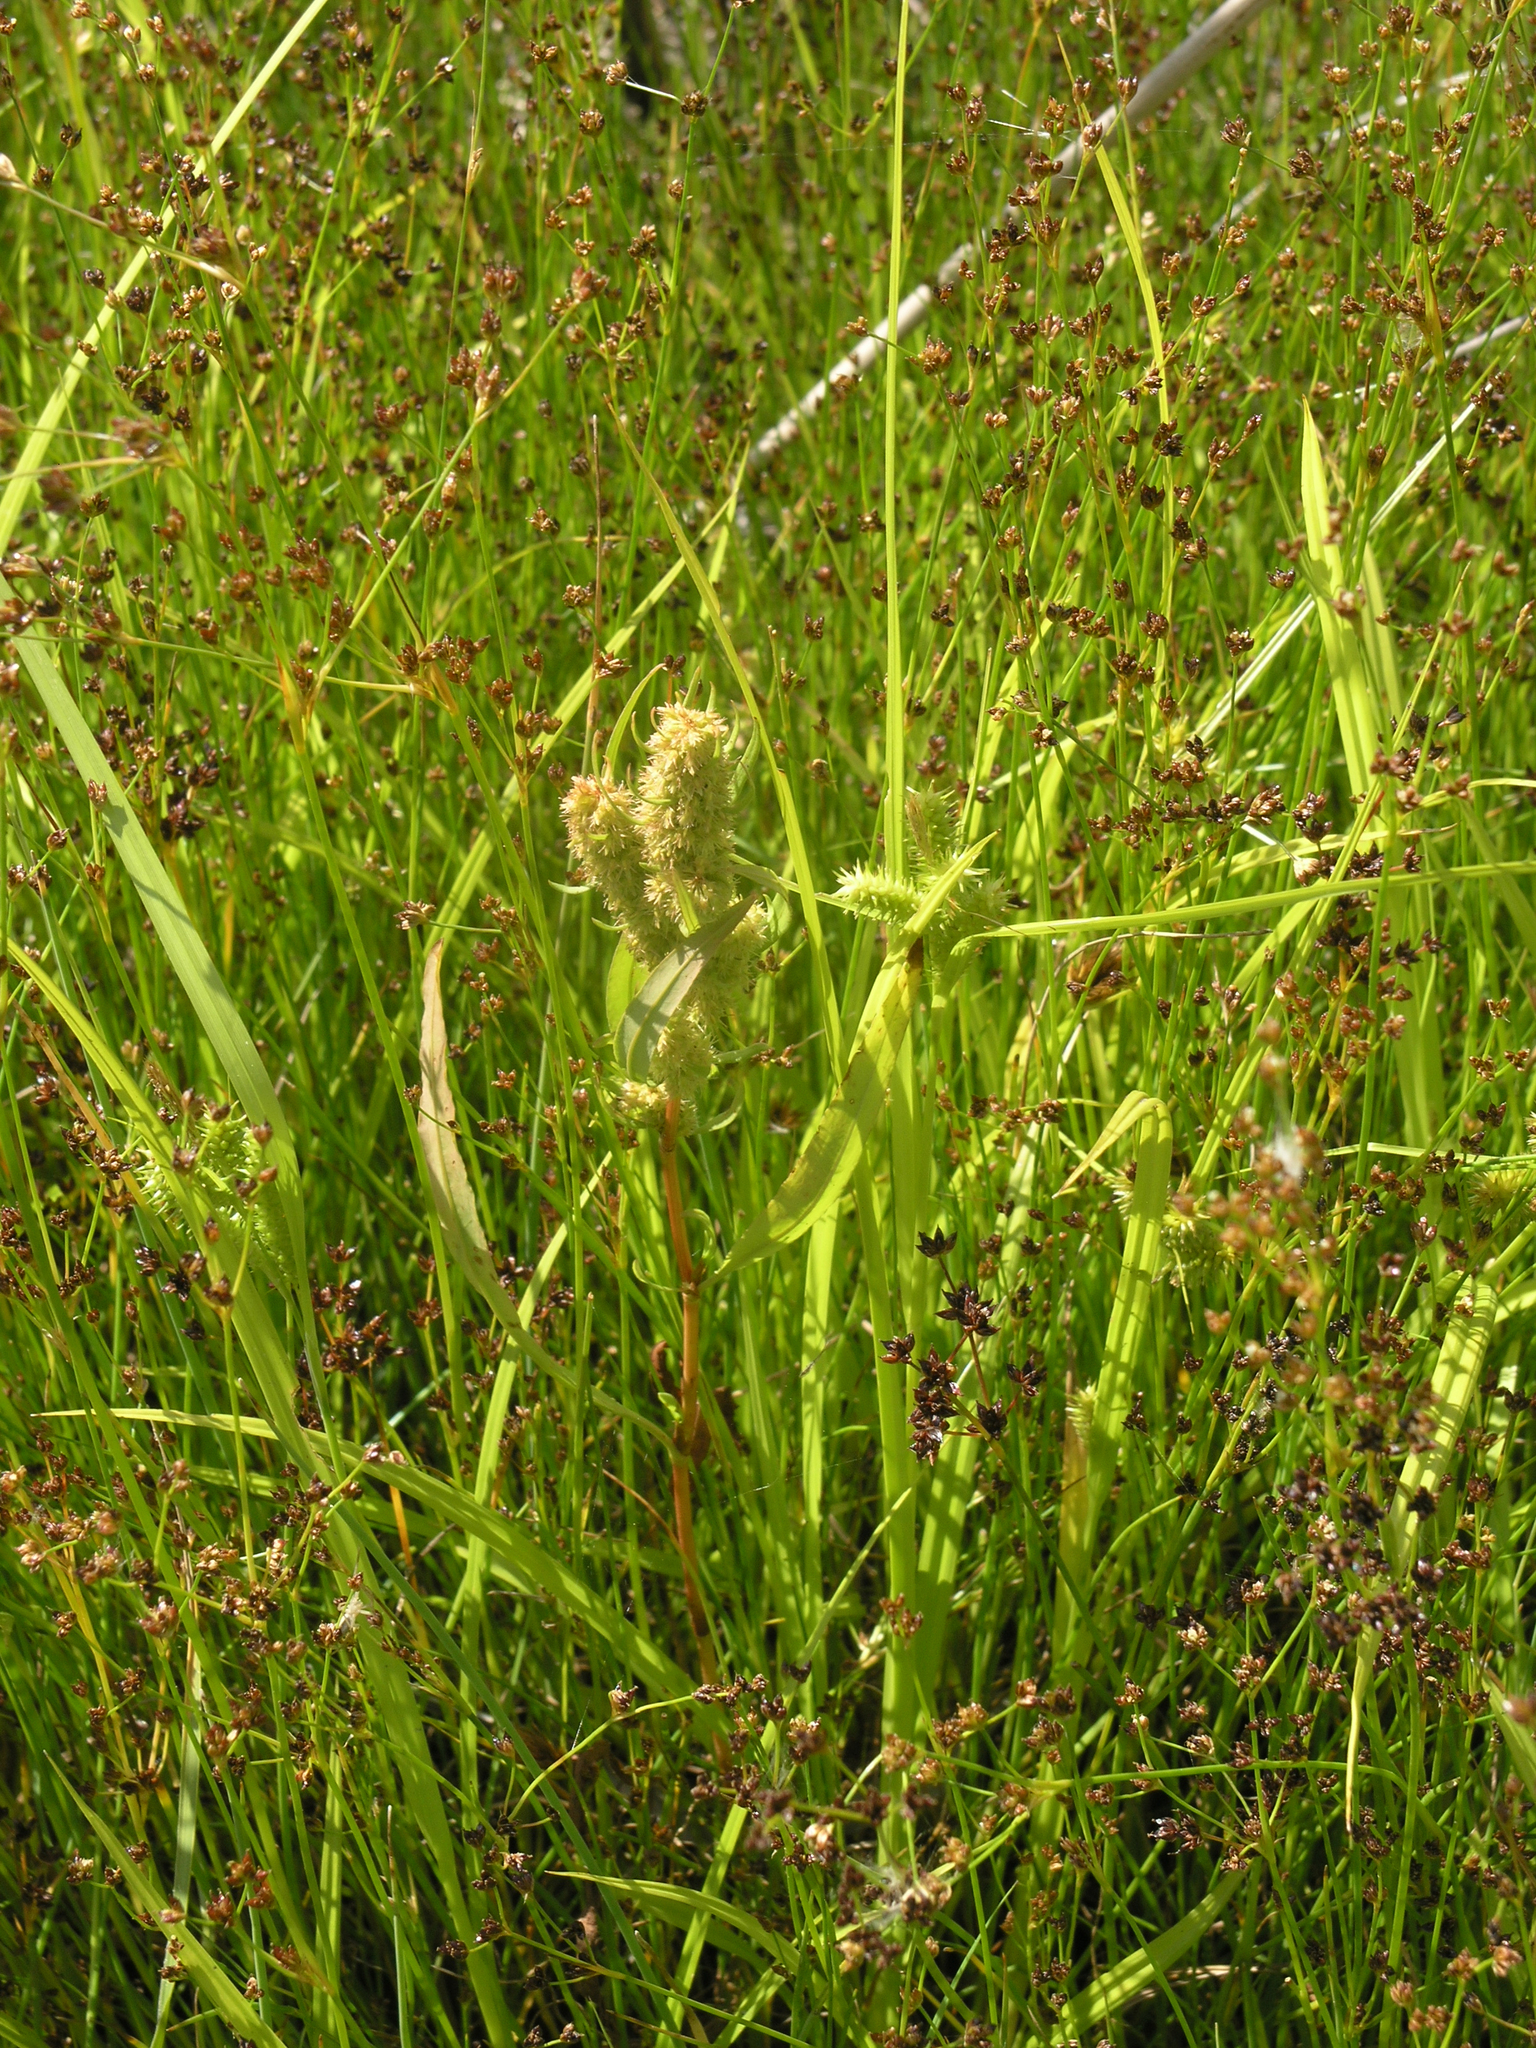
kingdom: Plantae
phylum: Tracheophyta
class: Magnoliopsida
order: Caryophyllales
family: Polygonaceae
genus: Rumex
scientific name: Rumex maritimus
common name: Golden dock
